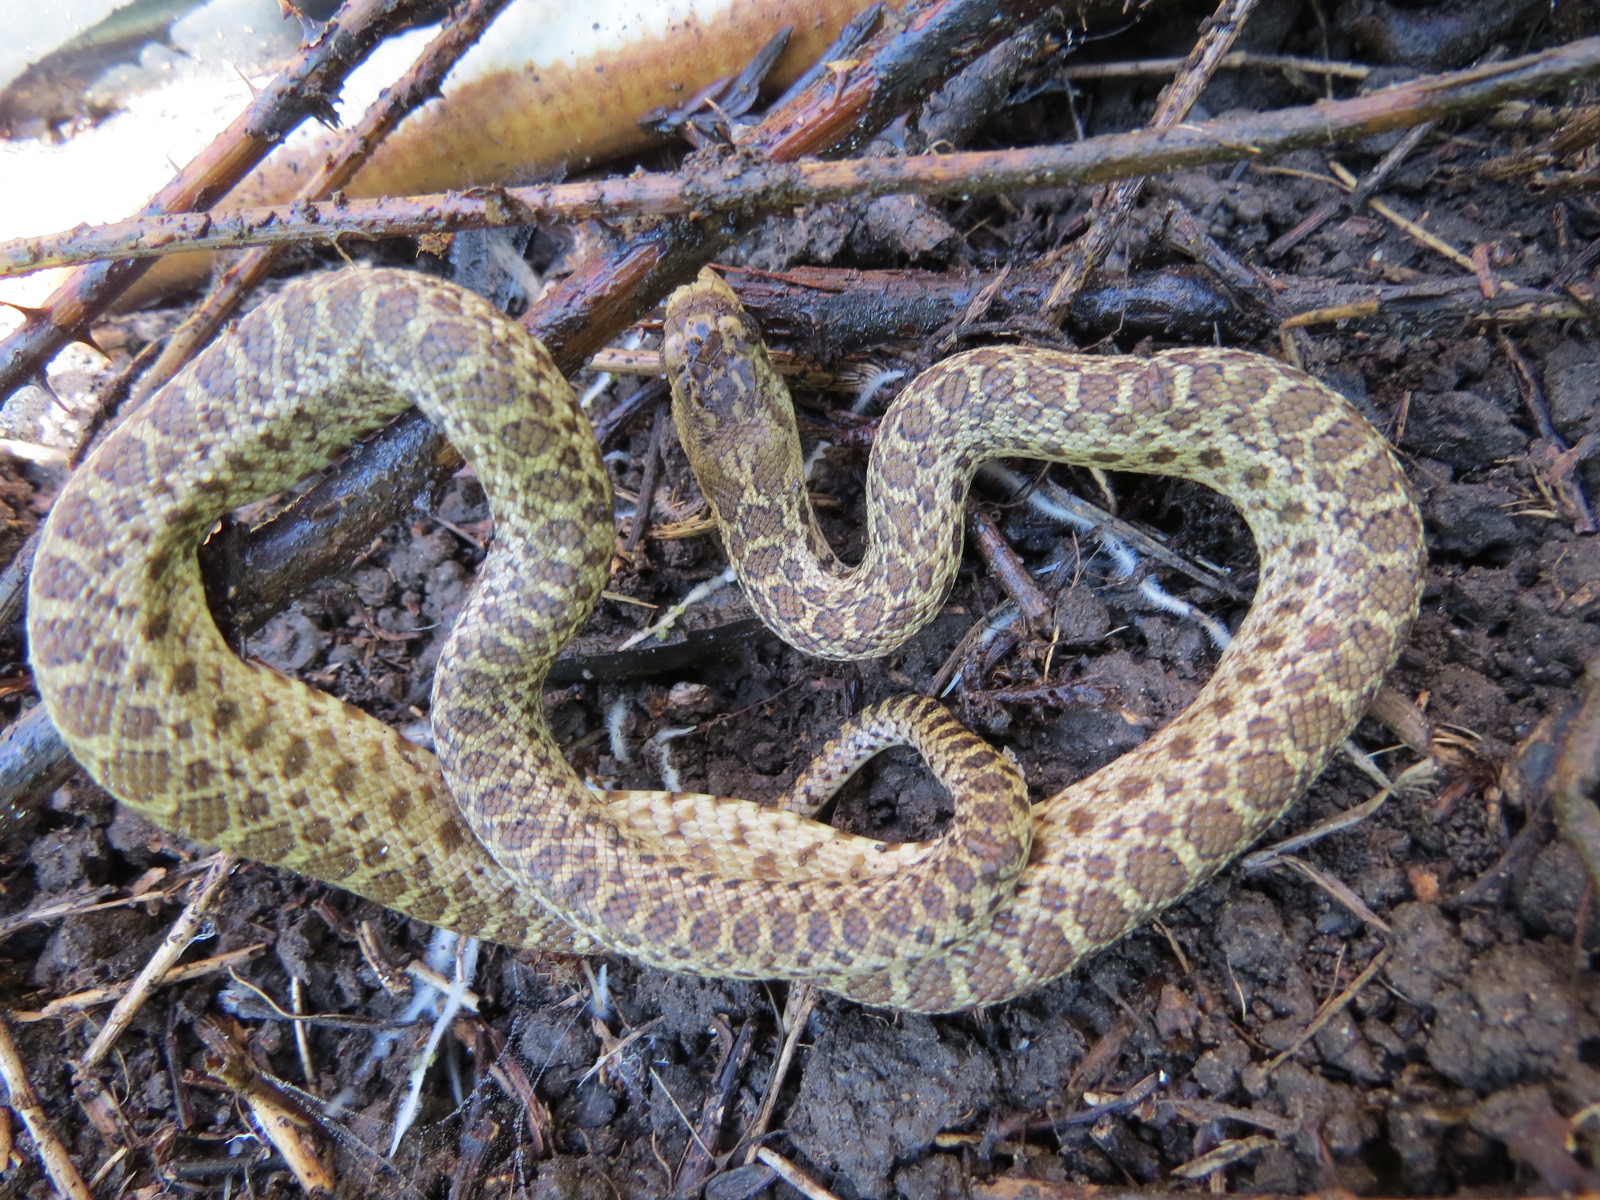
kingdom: Animalia
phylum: Chordata
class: Squamata
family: Colubridae
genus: Pituophis
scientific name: Pituophis catenifer
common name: Gopher snake
